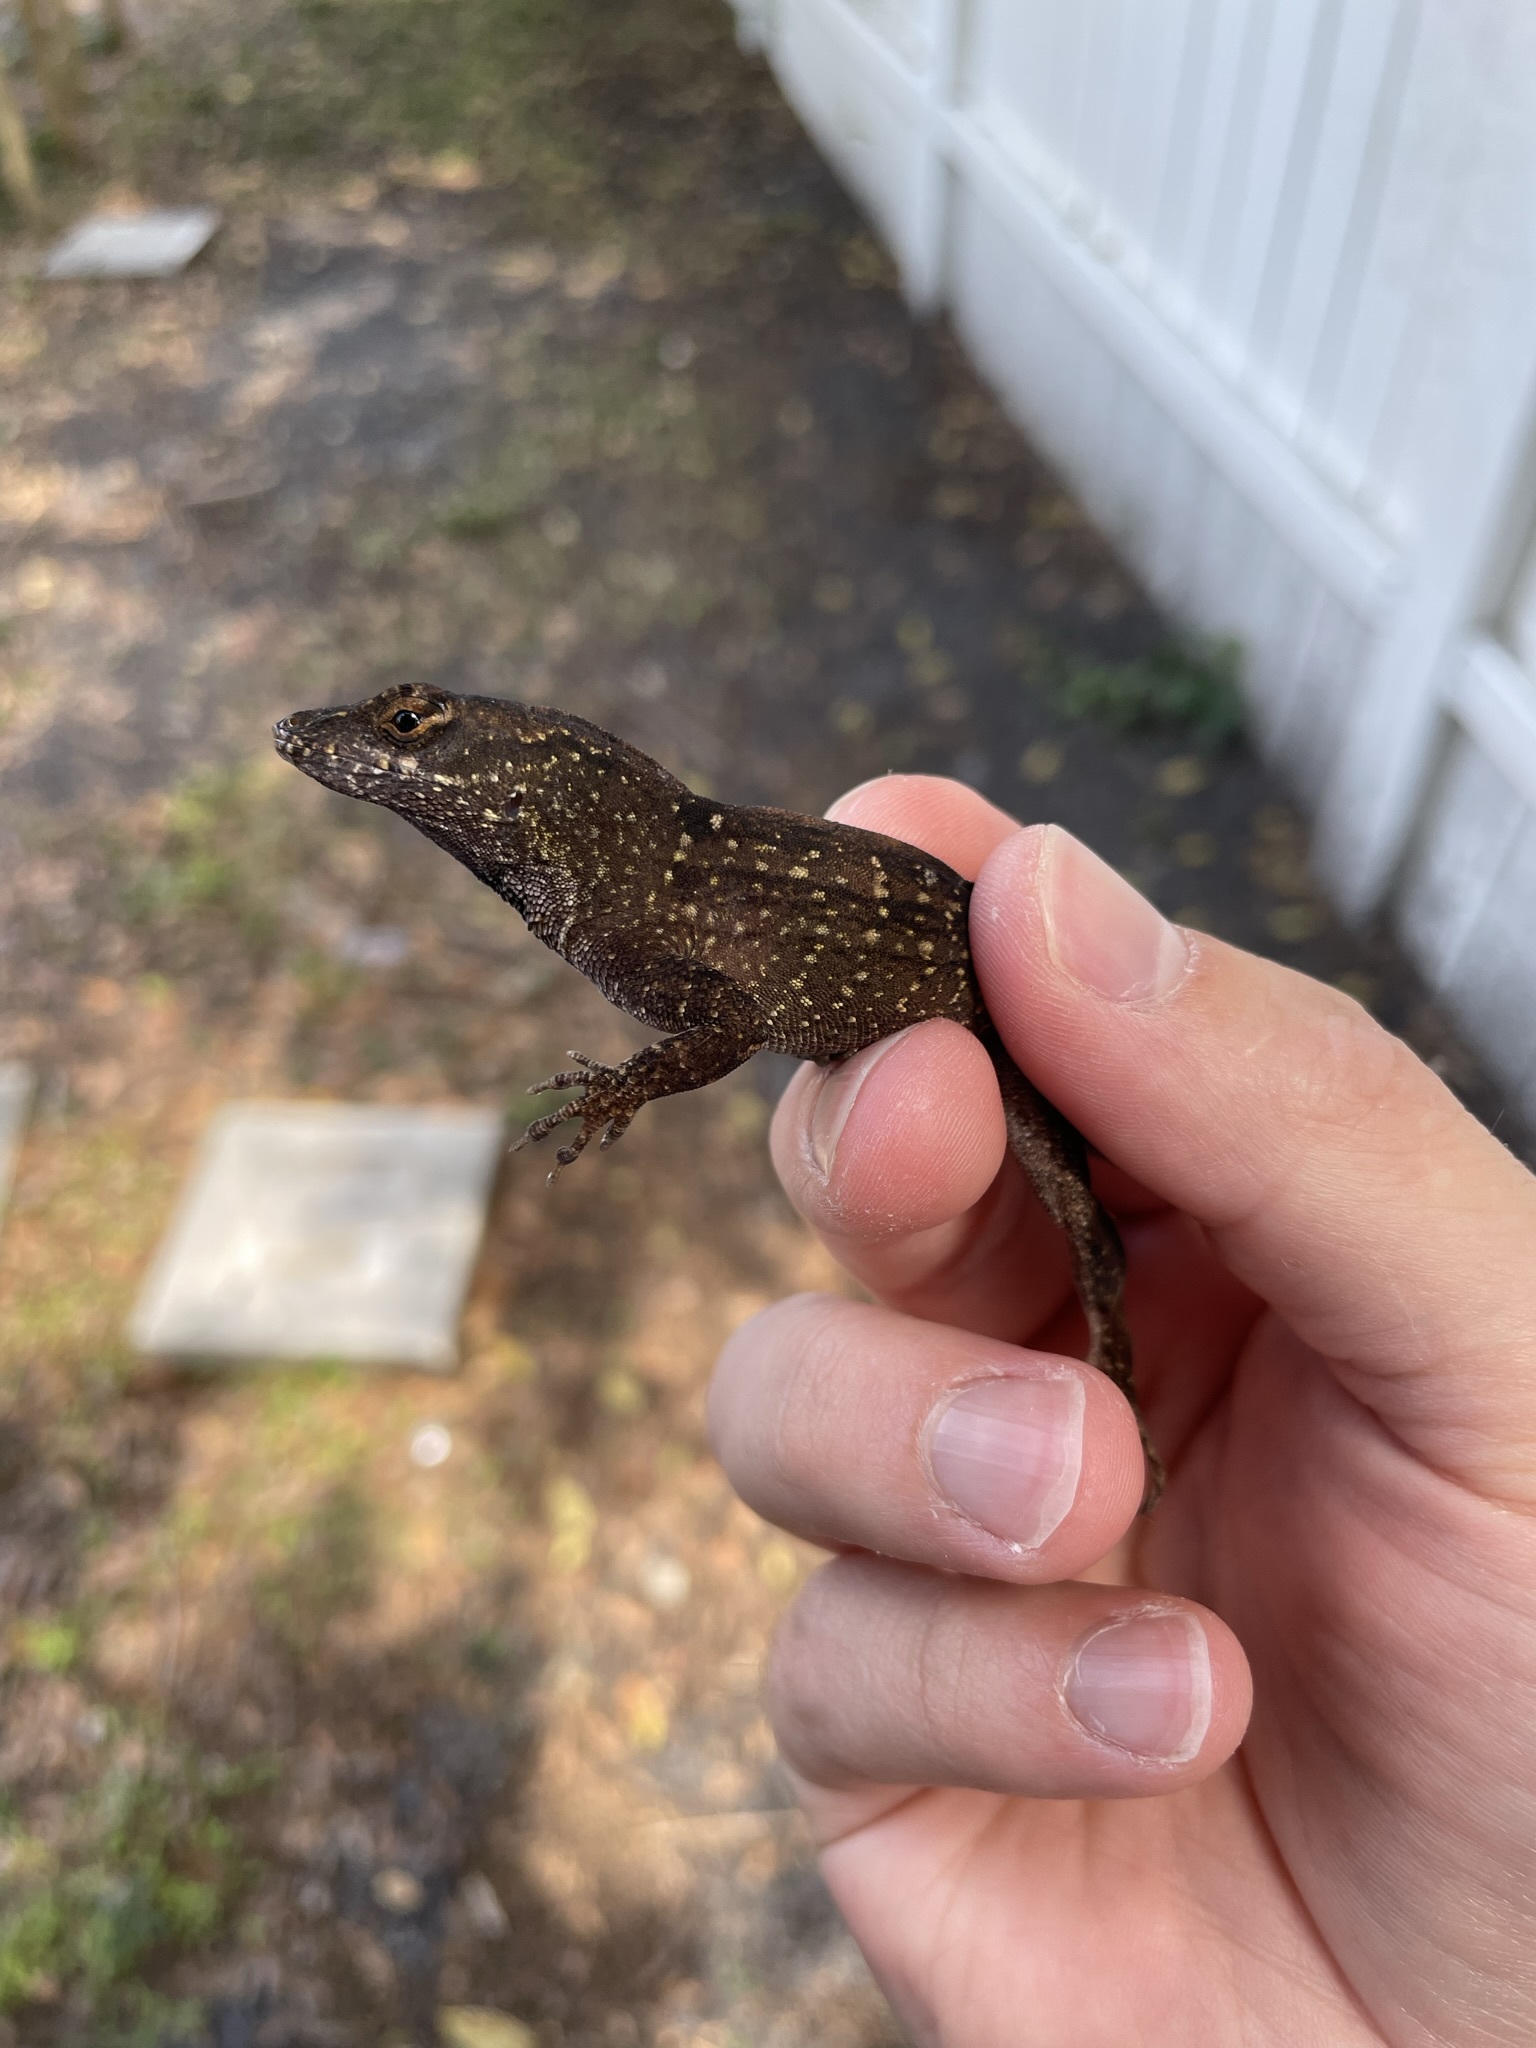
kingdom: Animalia
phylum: Chordata
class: Squamata
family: Dactyloidae
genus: Anolis
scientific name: Anolis sagrei
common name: Brown anole
